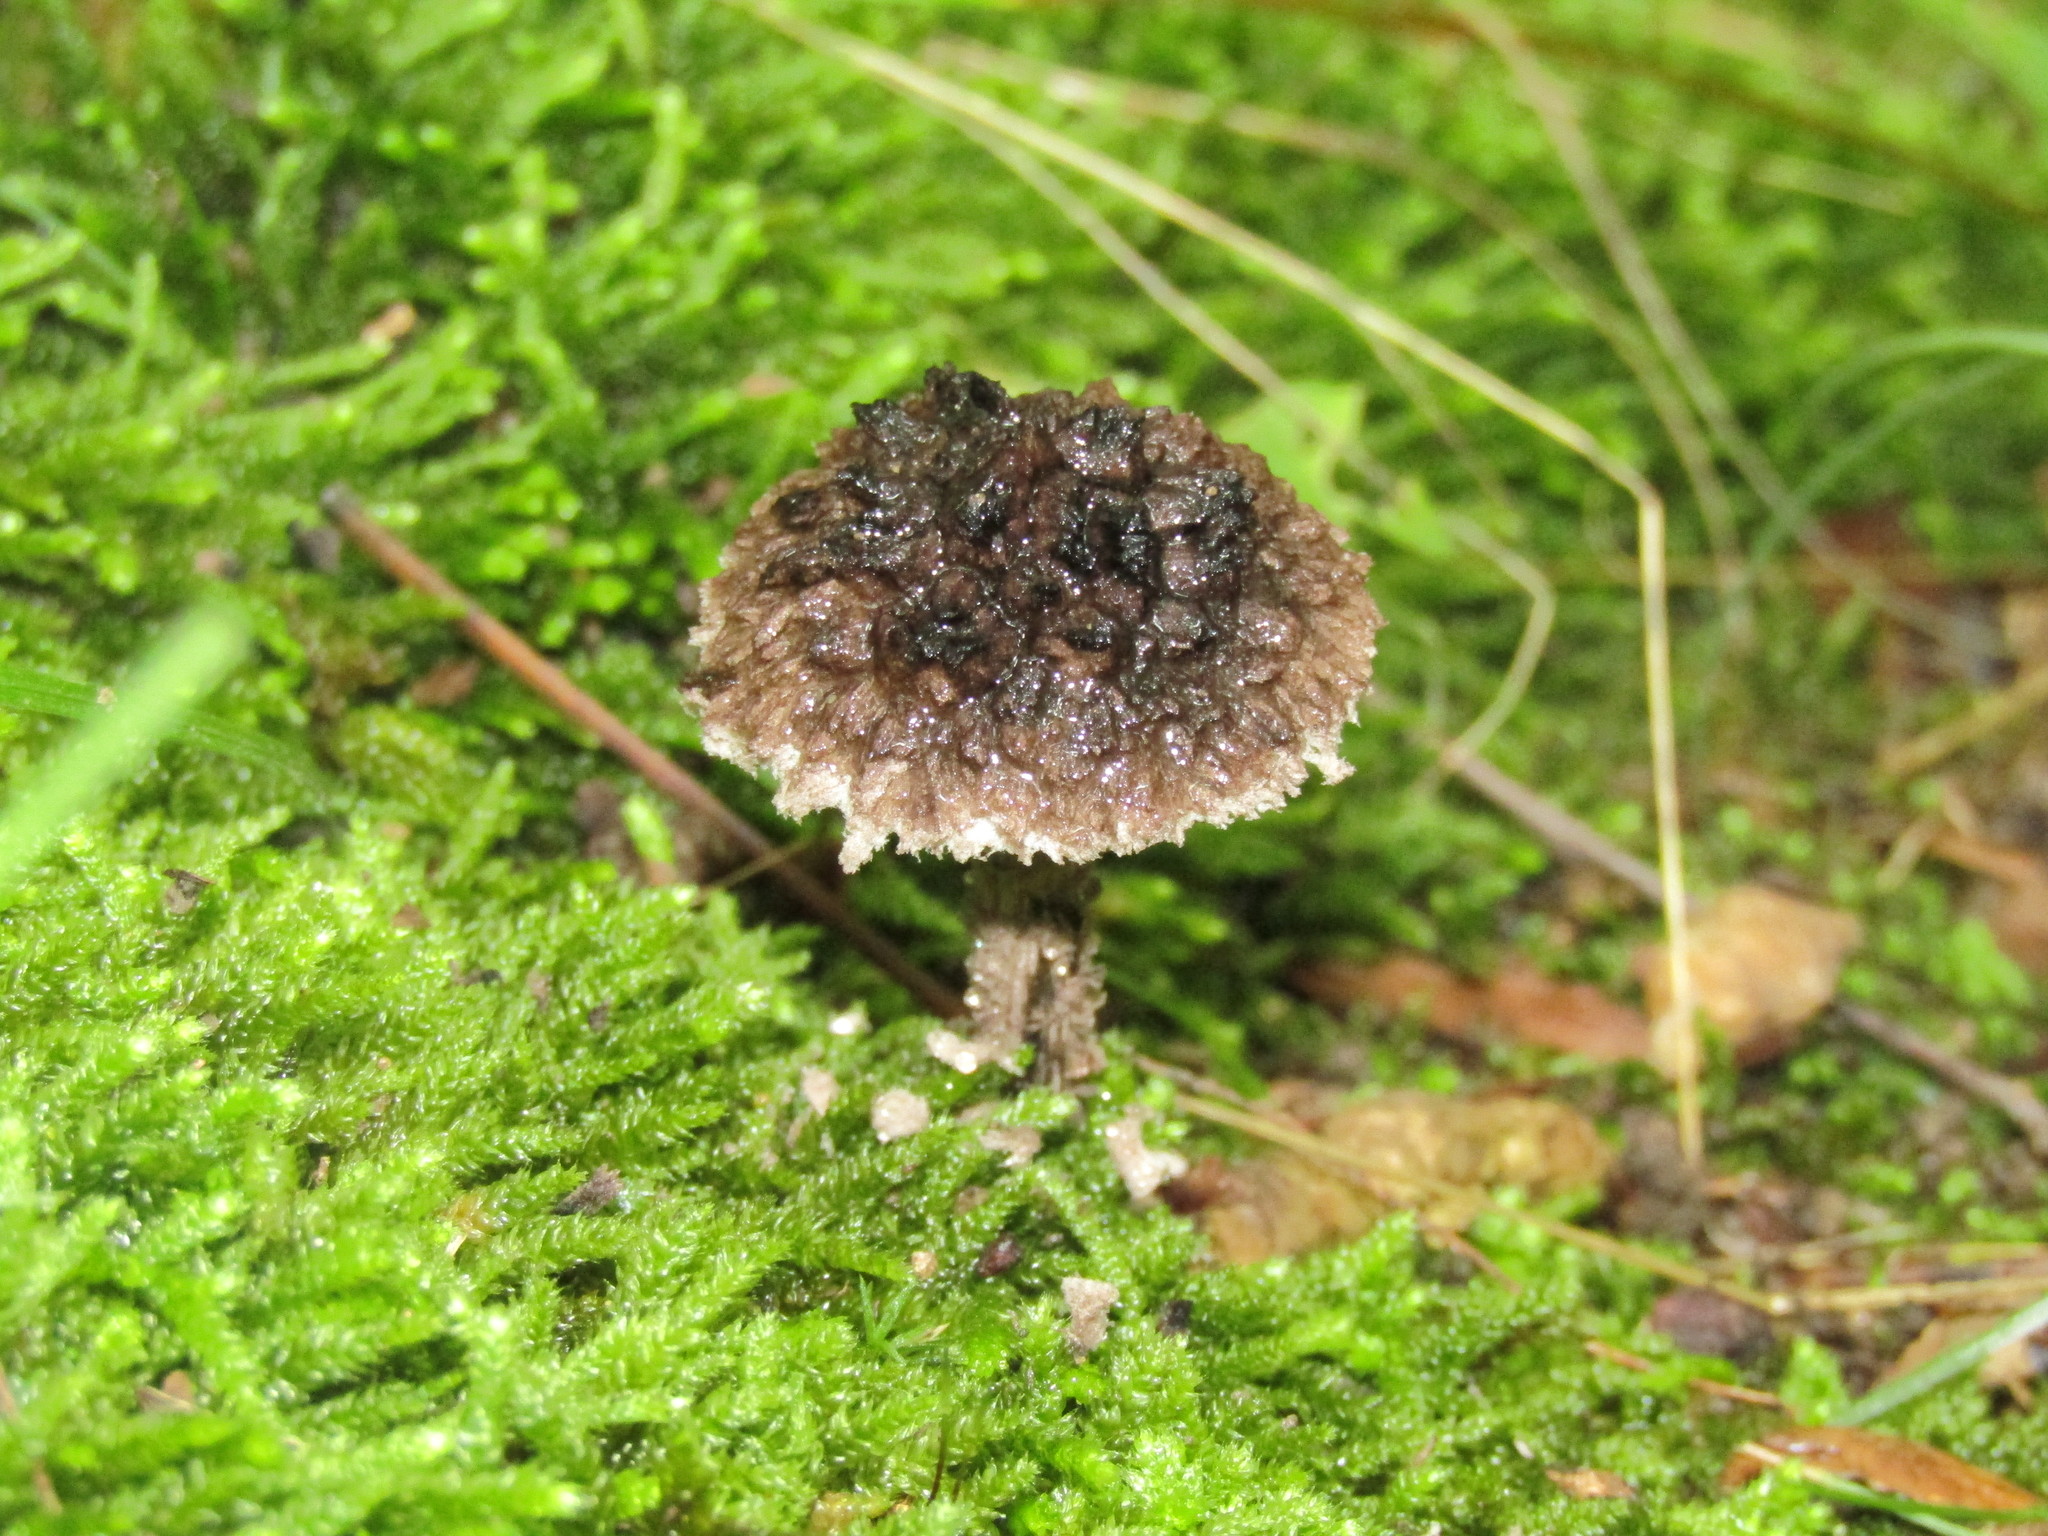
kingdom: Fungi
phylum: Basidiomycota
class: Agaricomycetes
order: Boletales
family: Boletaceae
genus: Strobilomyces
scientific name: Strobilomyces strobilaceus
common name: Old man of the woods
